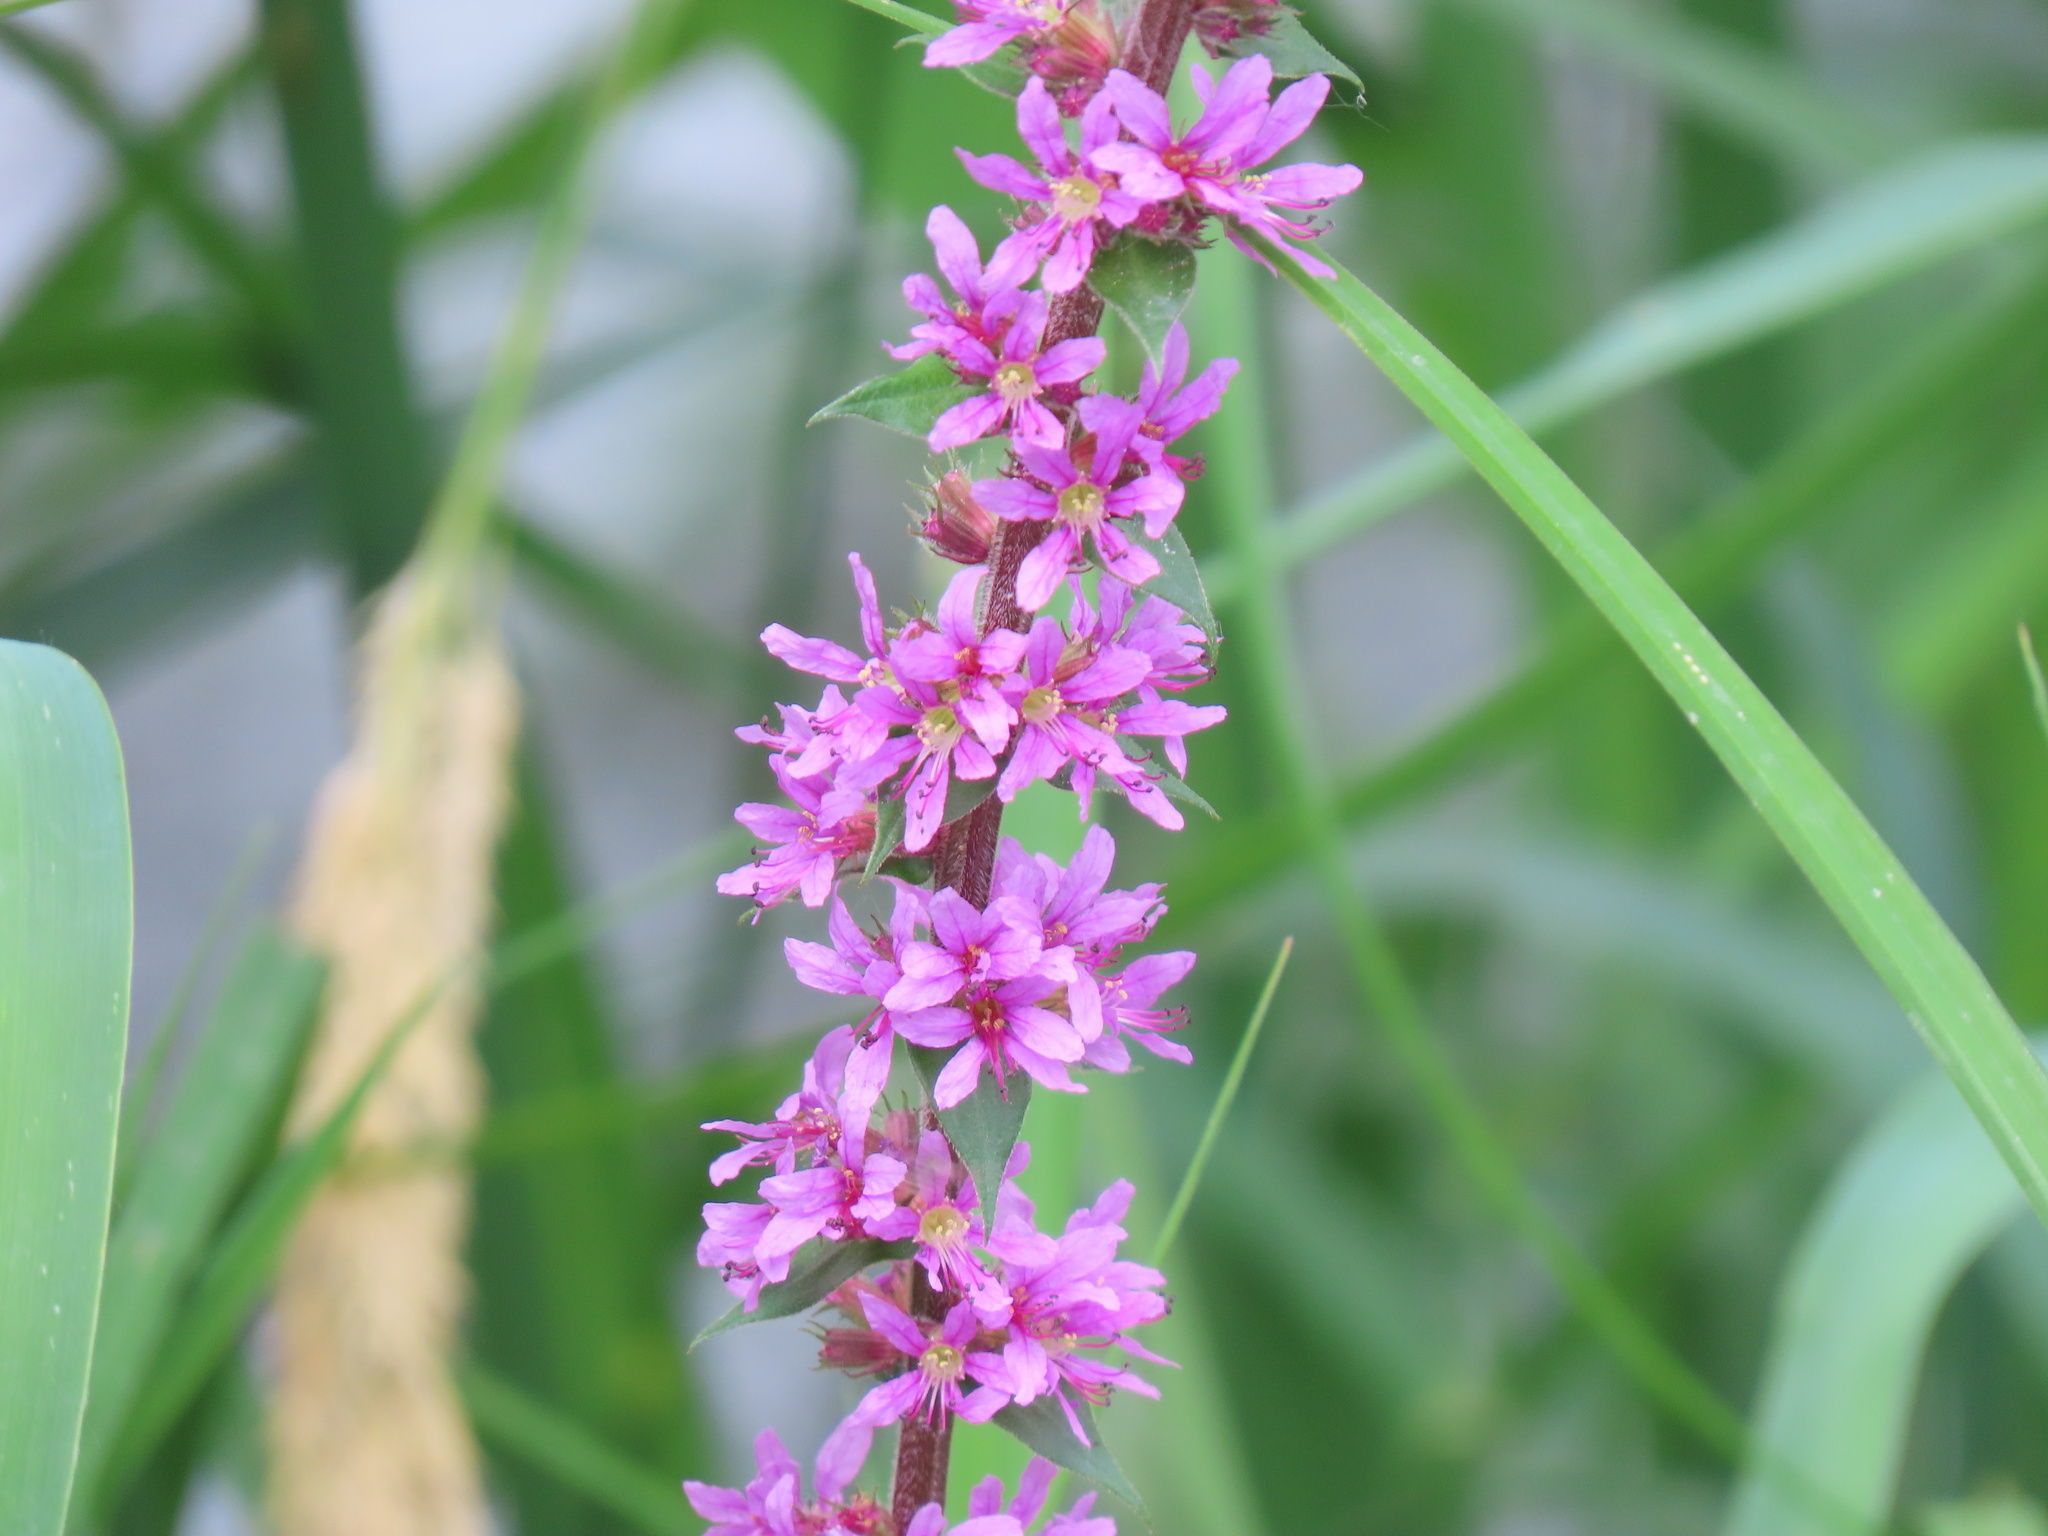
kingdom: Plantae
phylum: Tracheophyta
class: Magnoliopsida
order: Myrtales
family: Lythraceae
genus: Lythrum
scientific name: Lythrum salicaria
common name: Purple loosestrife
